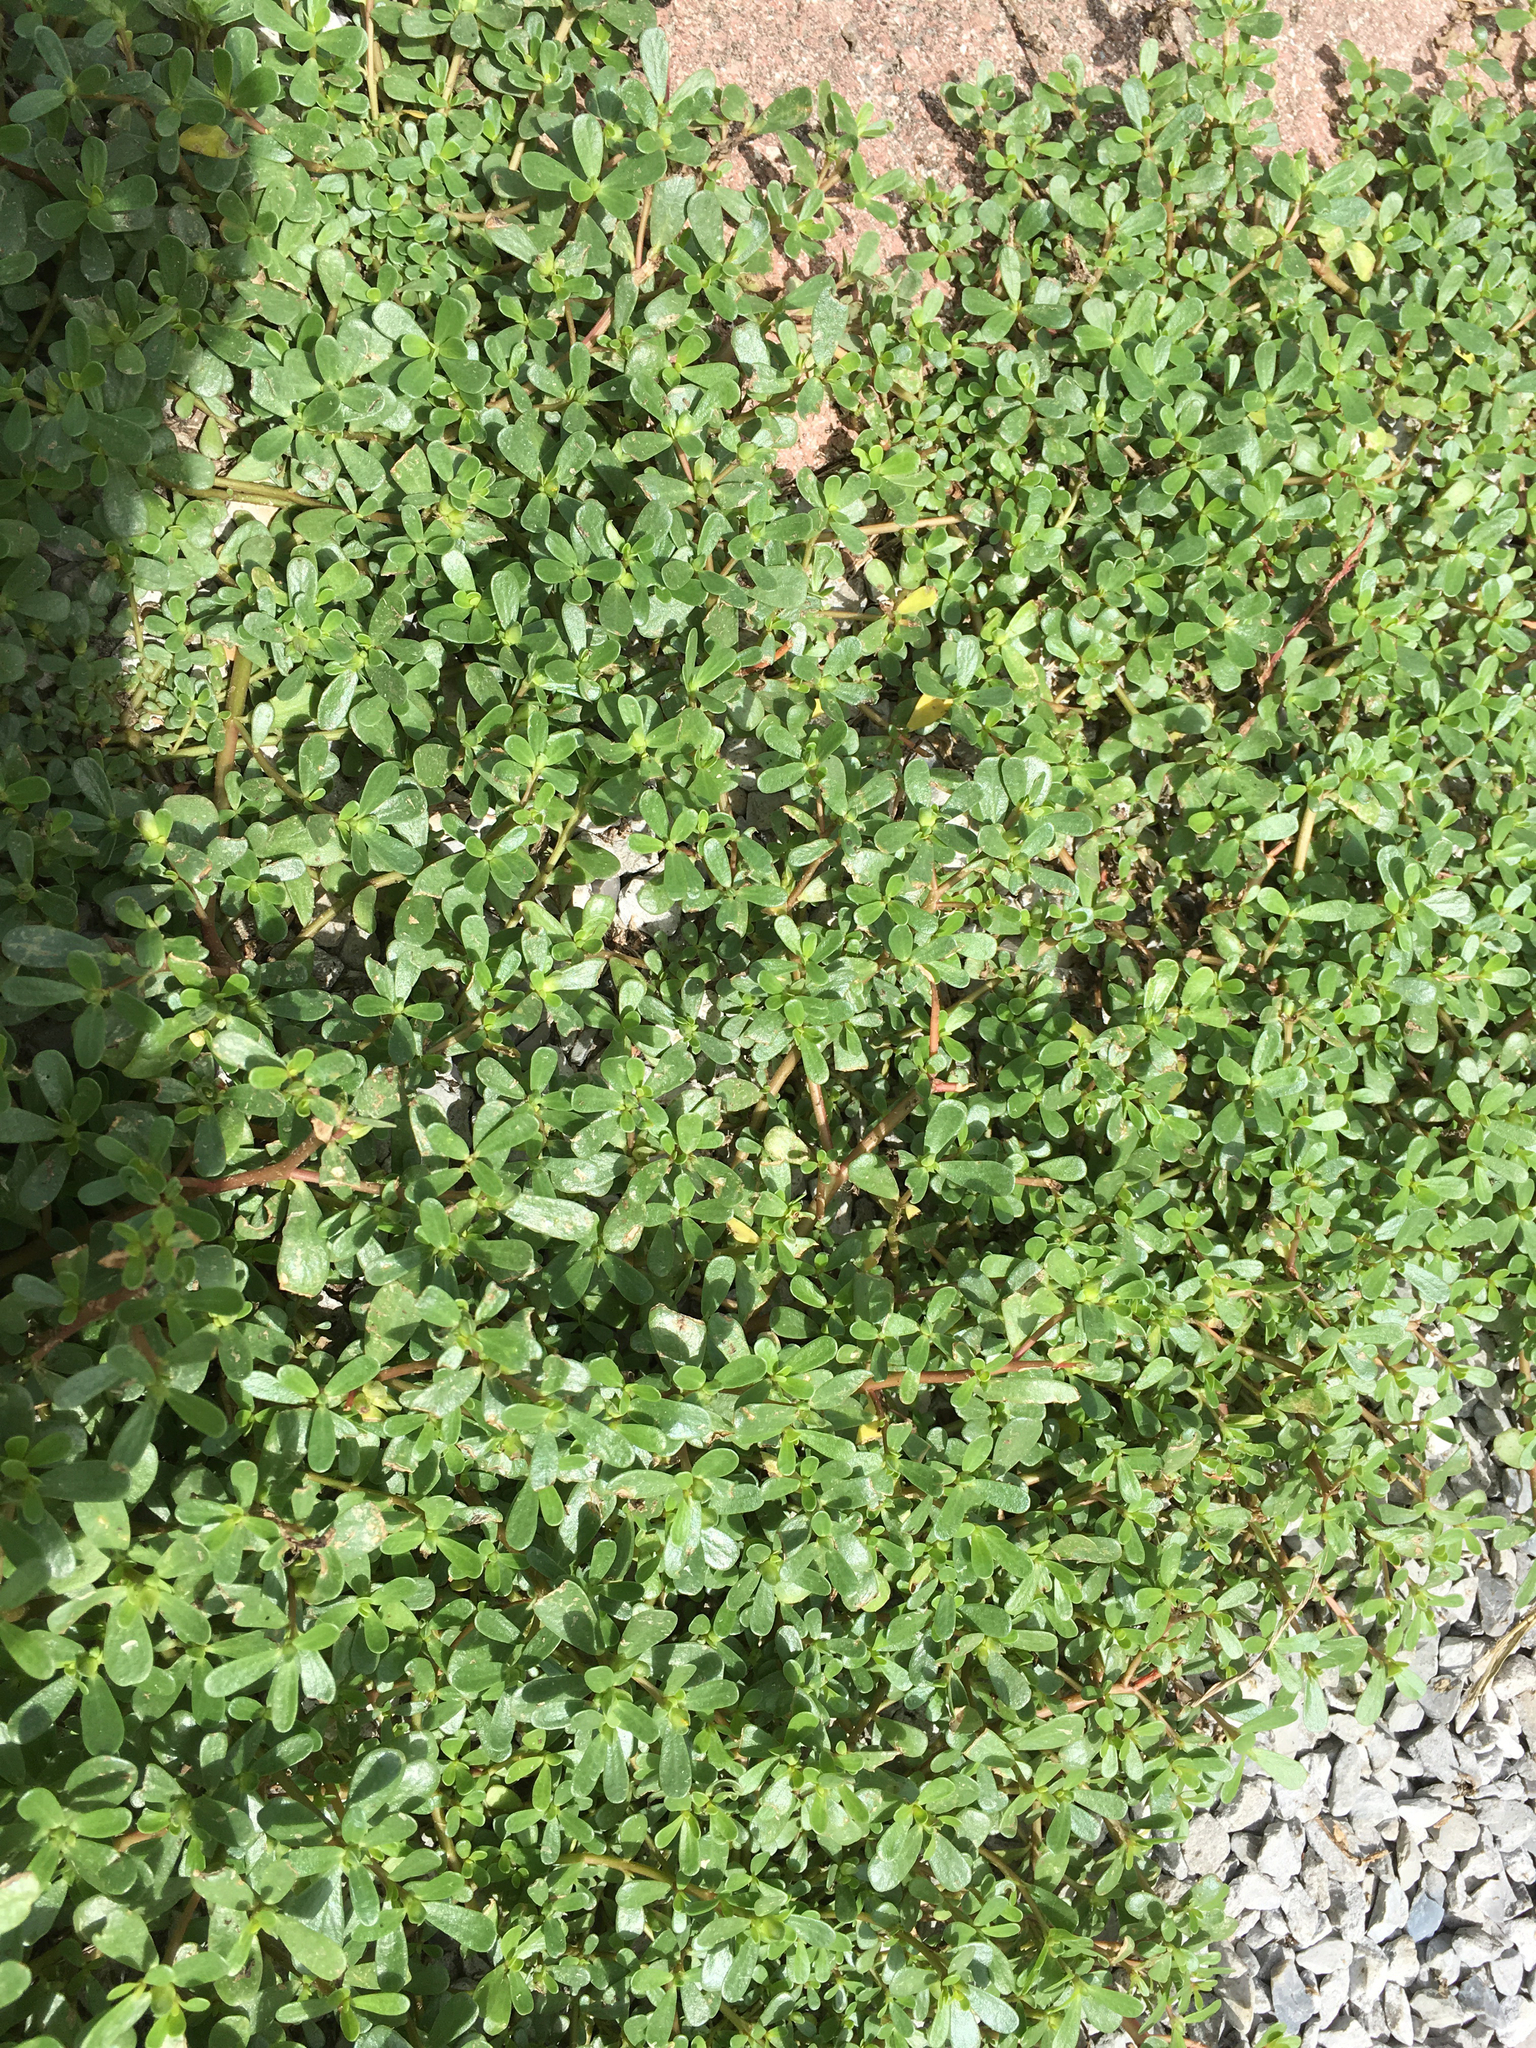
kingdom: Plantae
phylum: Tracheophyta
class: Magnoliopsida
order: Caryophyllales
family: Portulacaceae
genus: Portulaca
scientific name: Portulaca oleracea
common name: Common purslane
